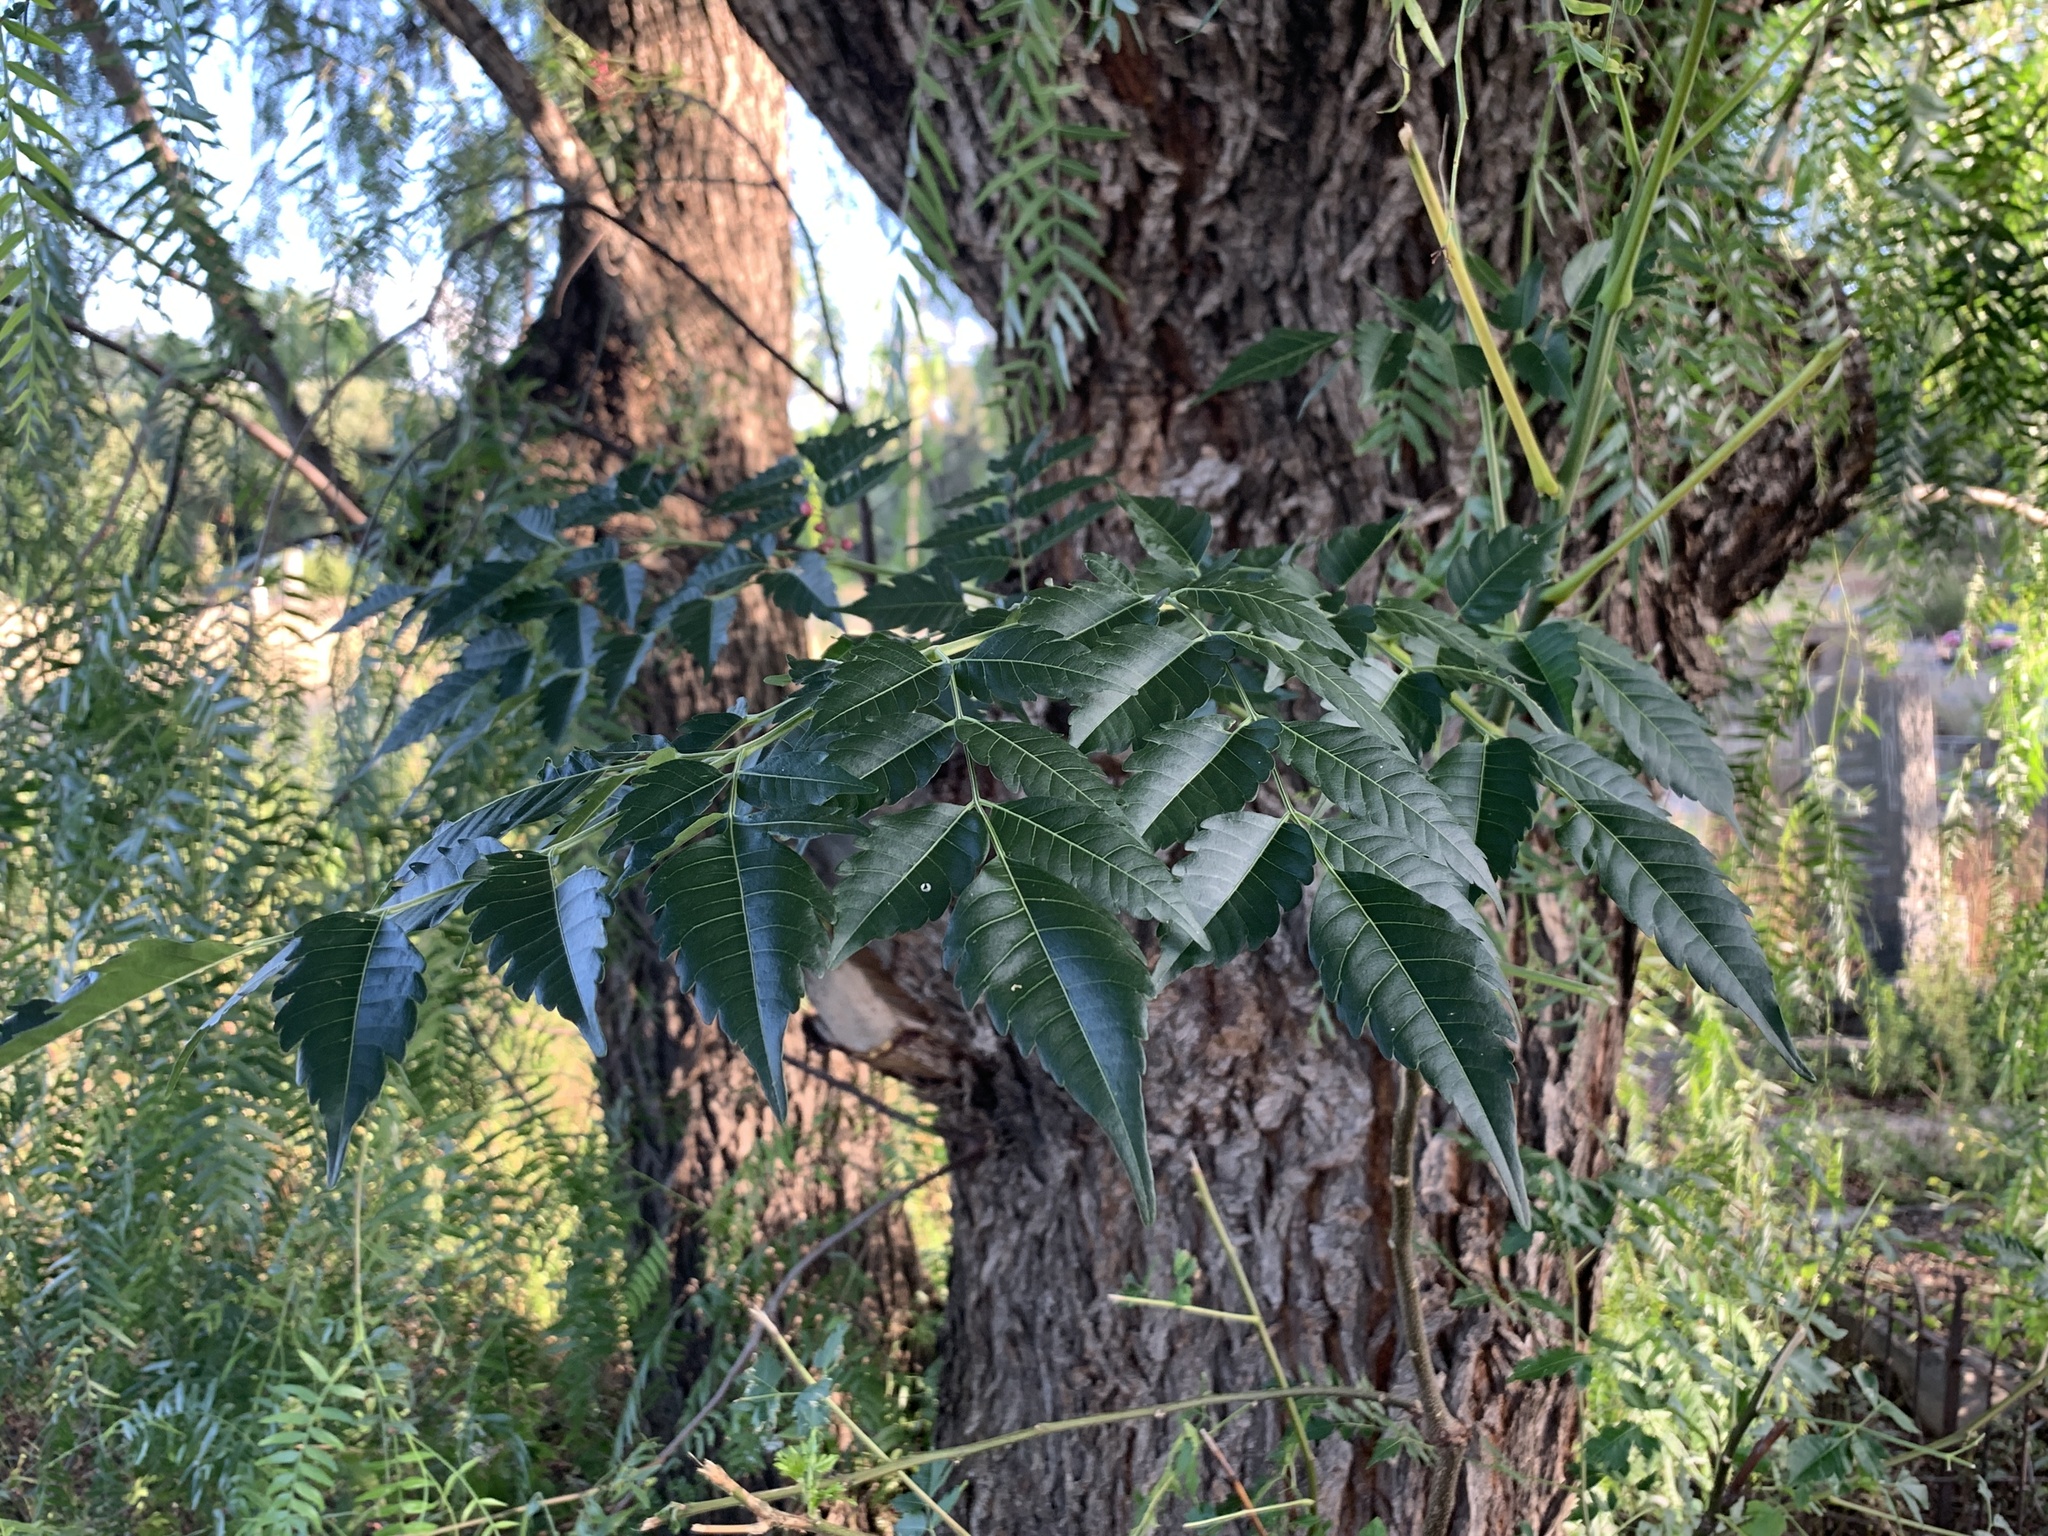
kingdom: Plantae
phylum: Tracheophyta
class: Magnoliopsida
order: Sapindales
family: Meliaceae
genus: Melia
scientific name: Melia azedarach
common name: Chinaberrytree
